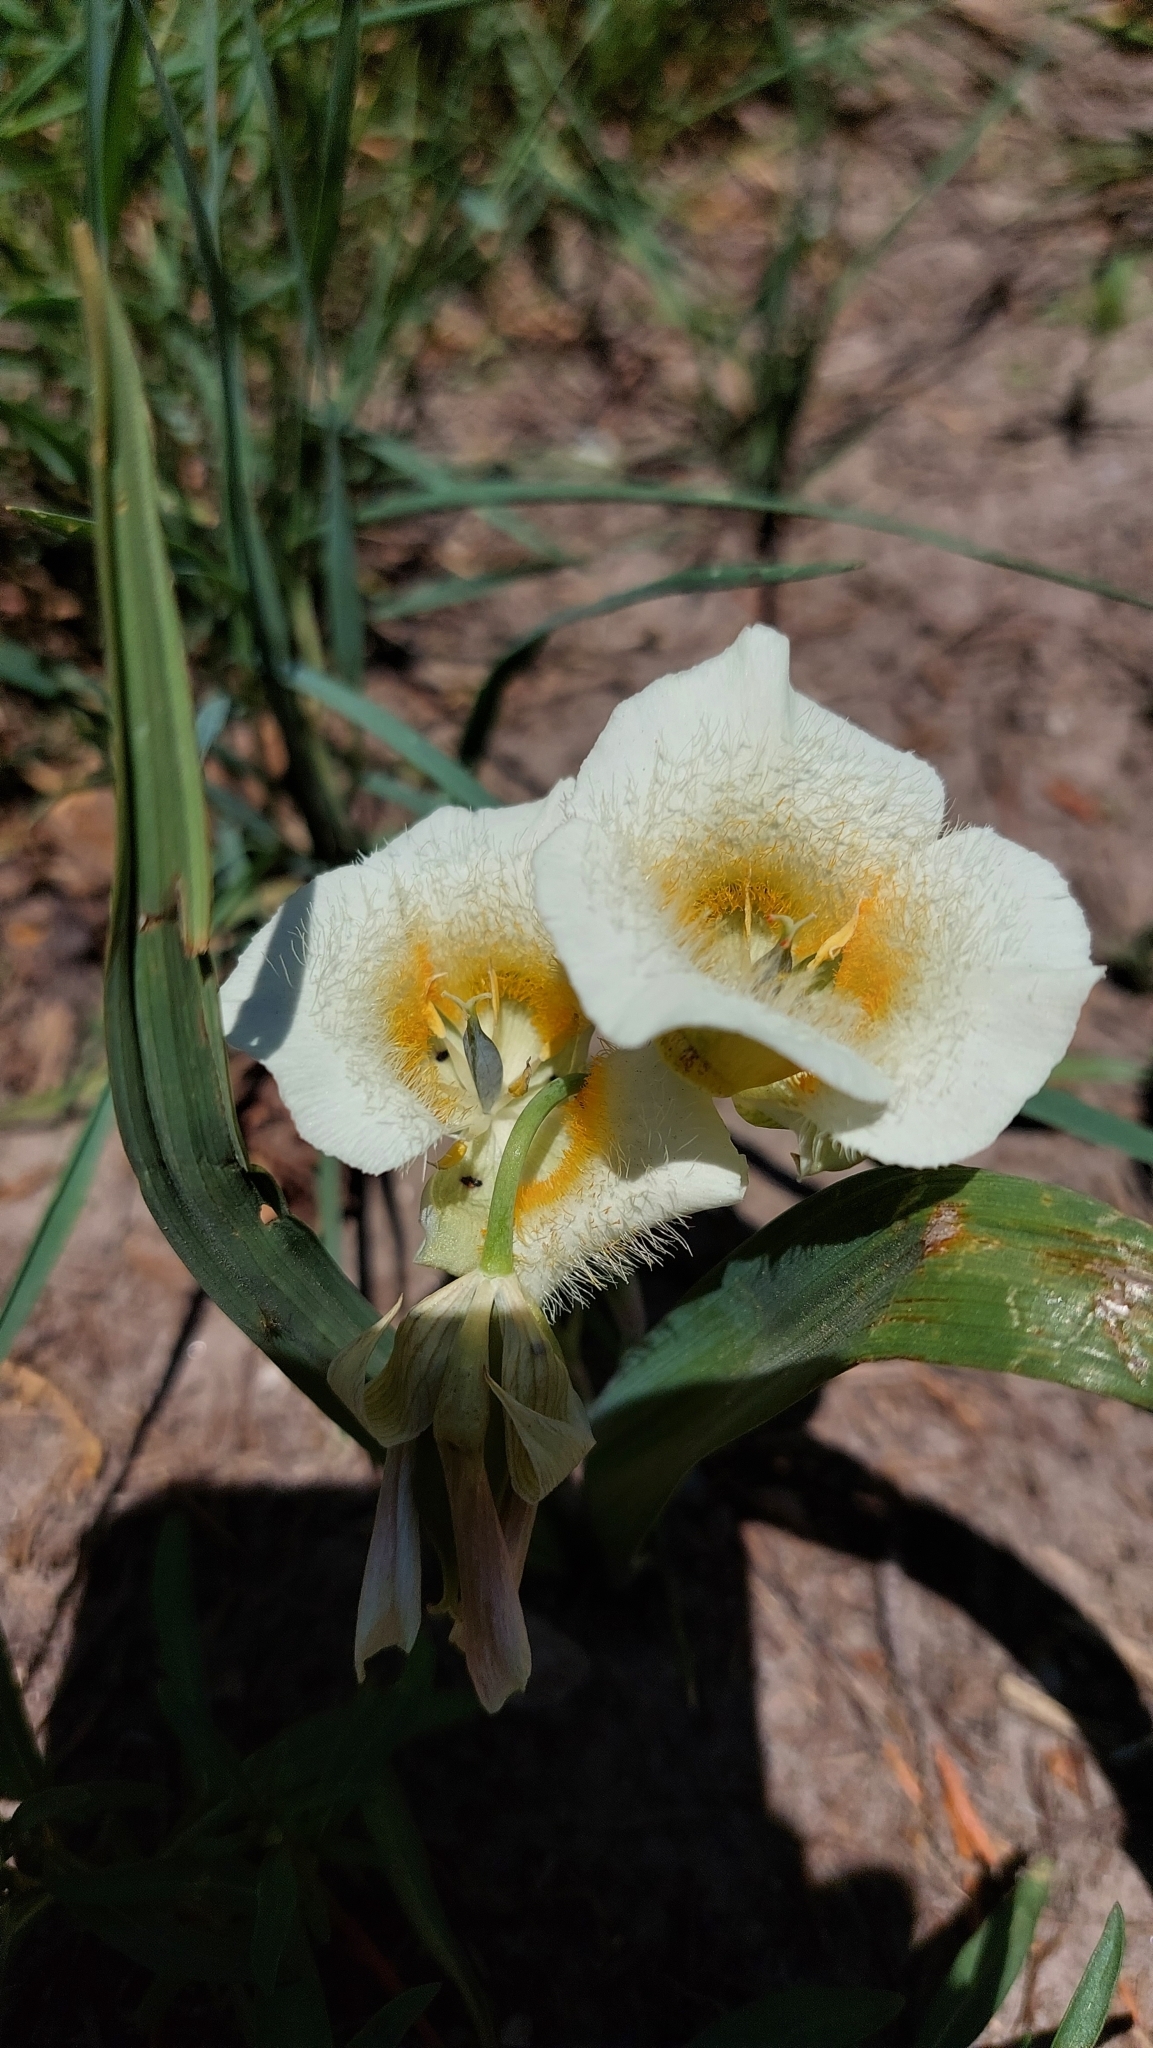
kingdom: Plantae
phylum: Tracheophyta
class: Liliopsida
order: Liliales
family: Liliaceae
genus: Calochortus
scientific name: Calochortus subalpinus
